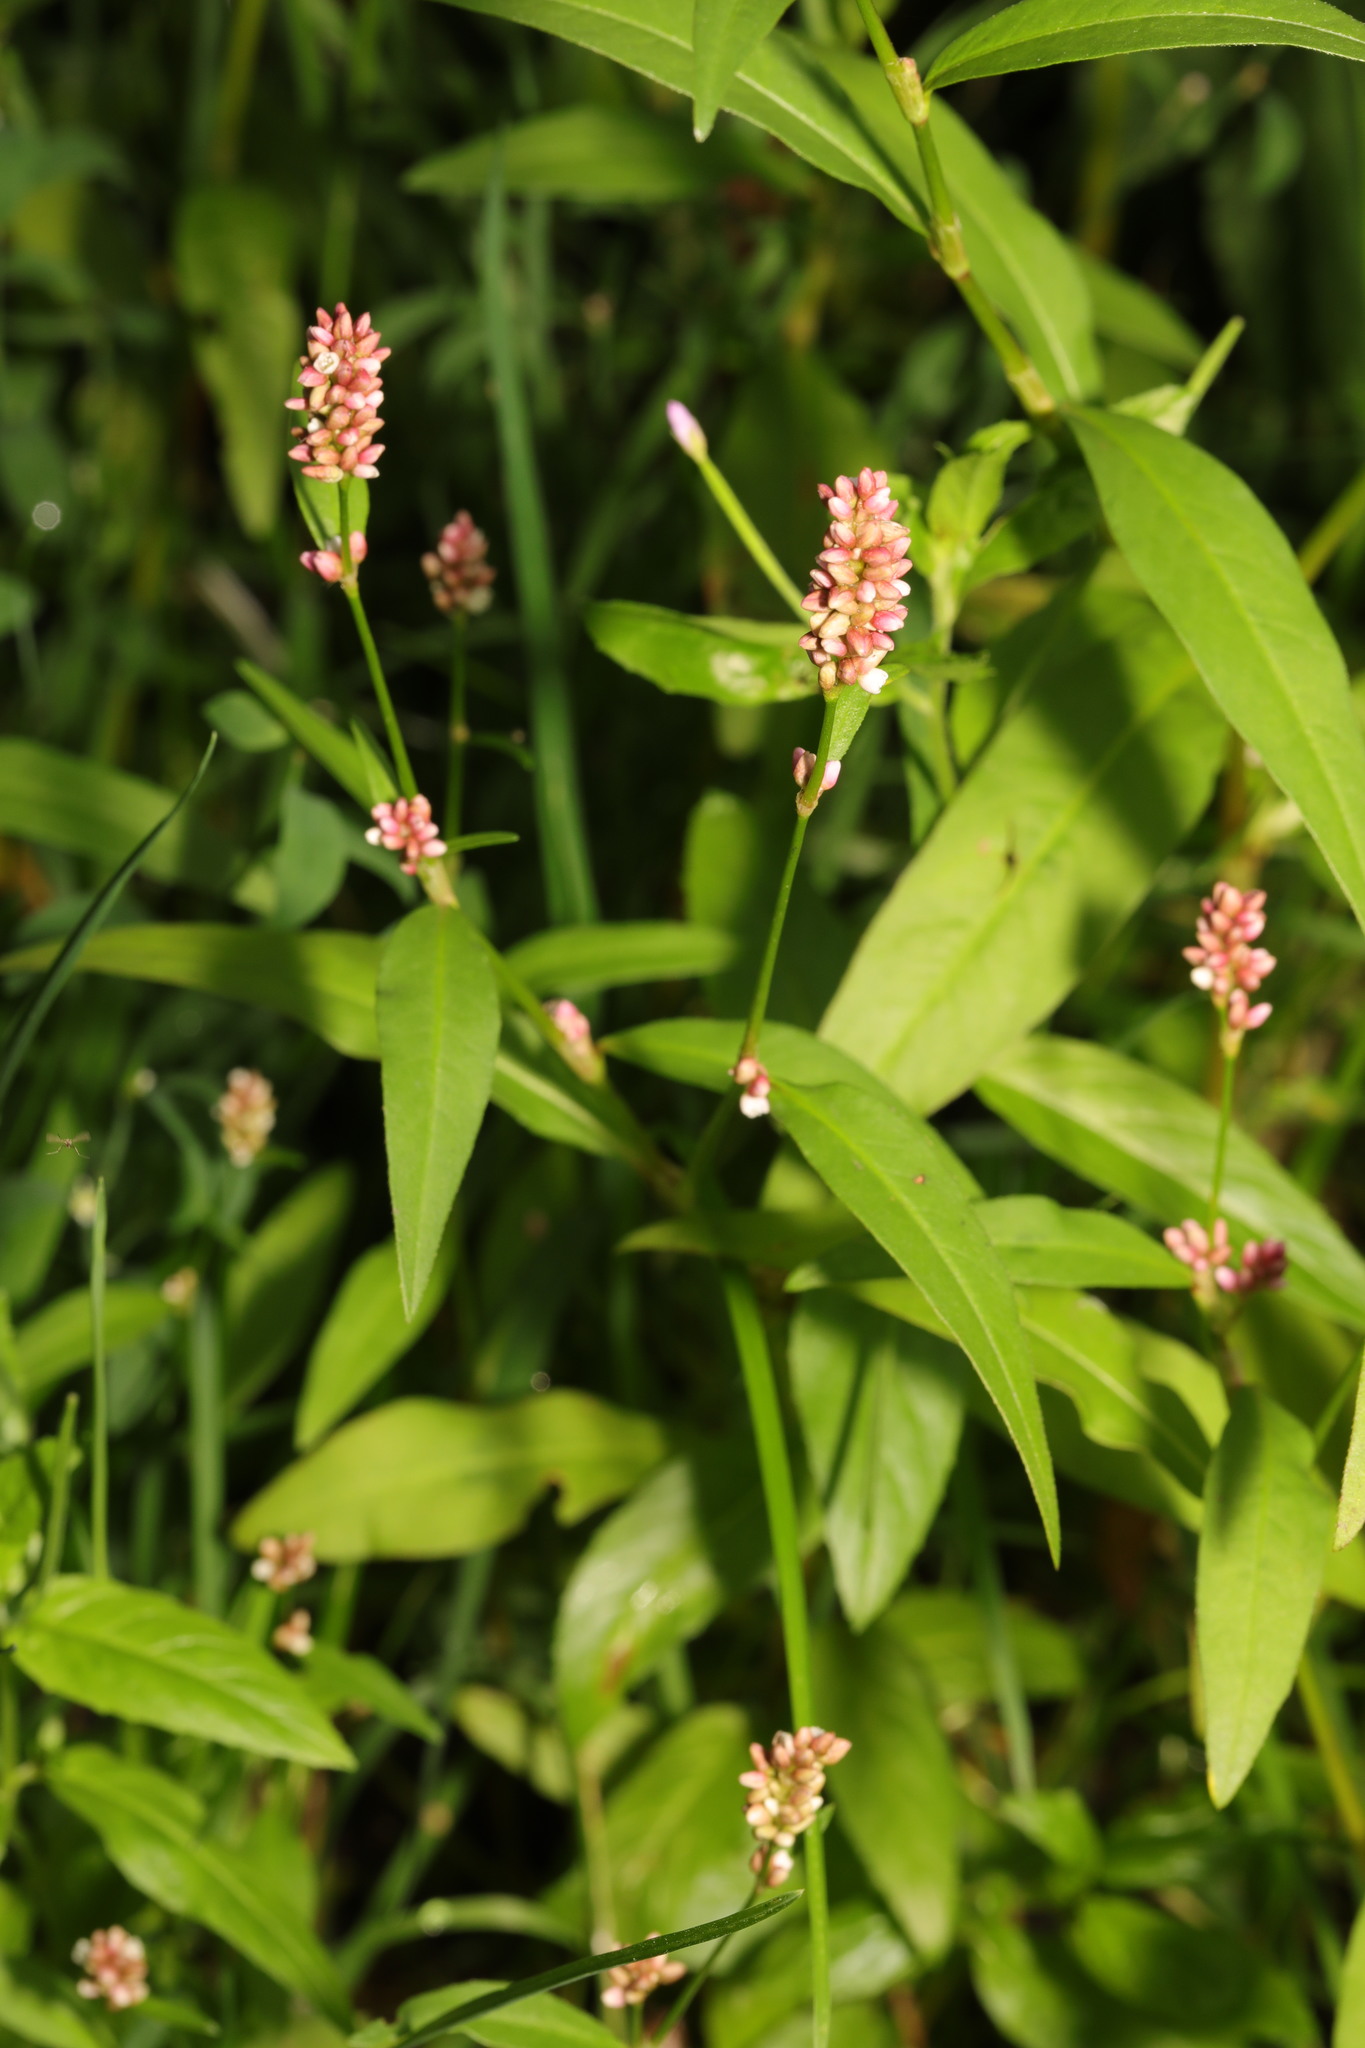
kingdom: Plantae
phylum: Tracheophyta
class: Magnoliopsida
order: Caryophyllales
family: Polygonaceae
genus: Persicaria
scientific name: Persicaria maculosa
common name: Redshank
